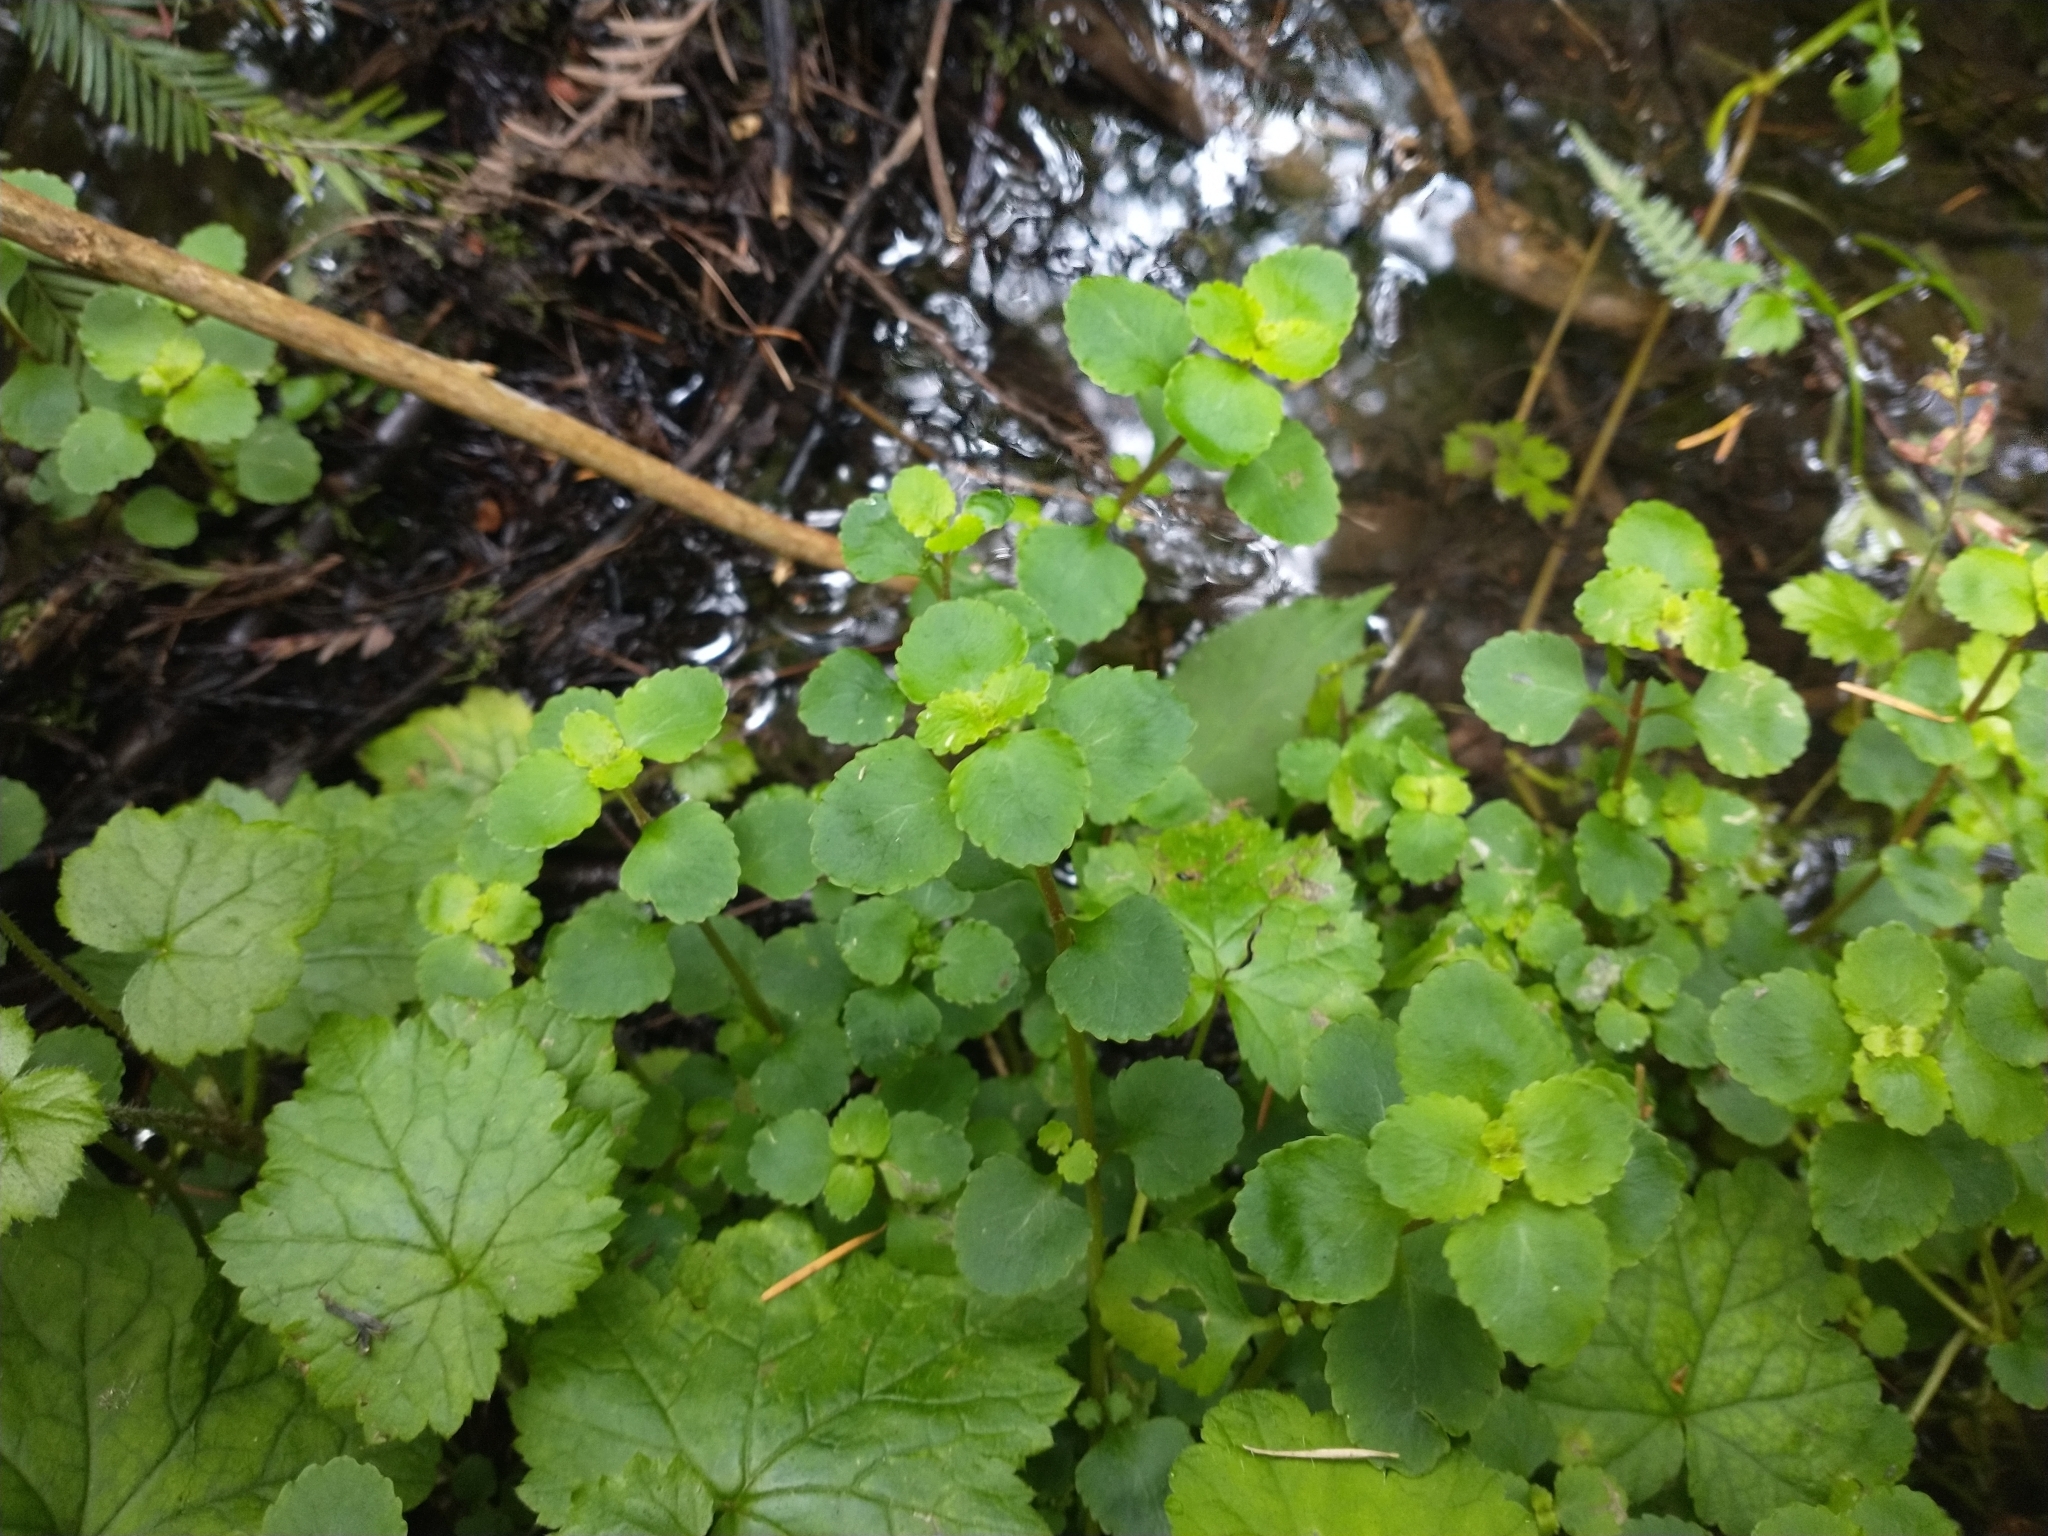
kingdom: Plantae
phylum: Tracheophyta
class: Magnoliopsida
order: Saxifragales
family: Saxifragaceae
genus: Chrysosplenium
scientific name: Chrysosplenium glechomifolium
